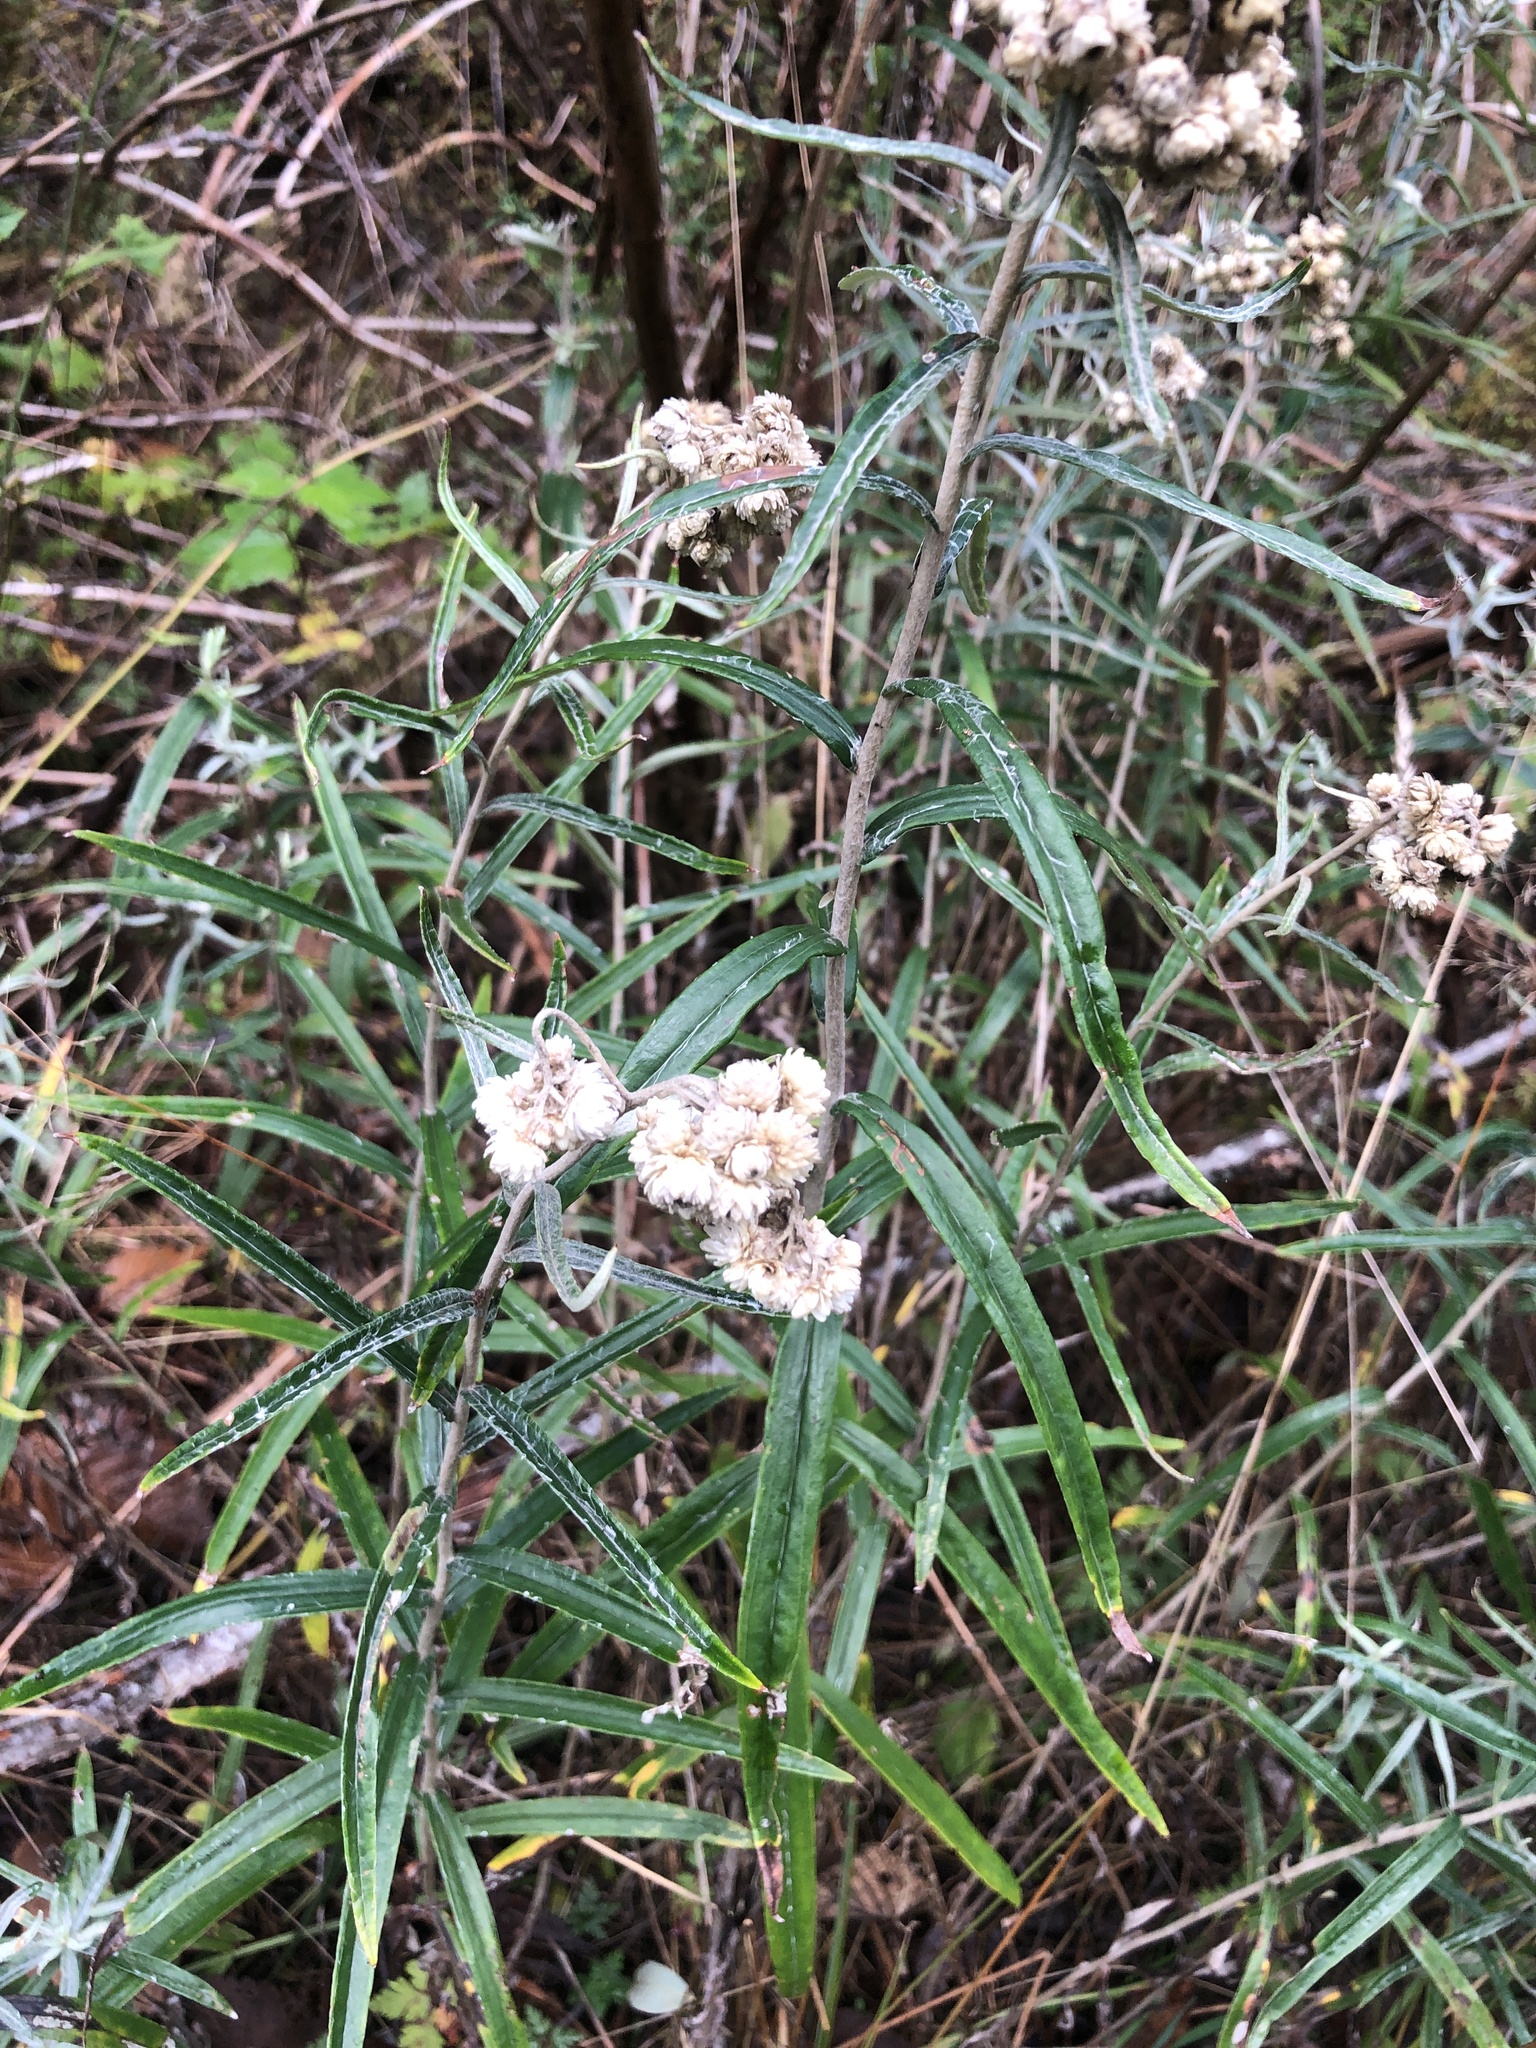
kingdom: Plantae
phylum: Tracheophyta
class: Magnoliopsida
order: Asterales
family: Asteraceae
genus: Anaphalis
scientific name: Anaphalis margaritacea
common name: Pearly everlasting
